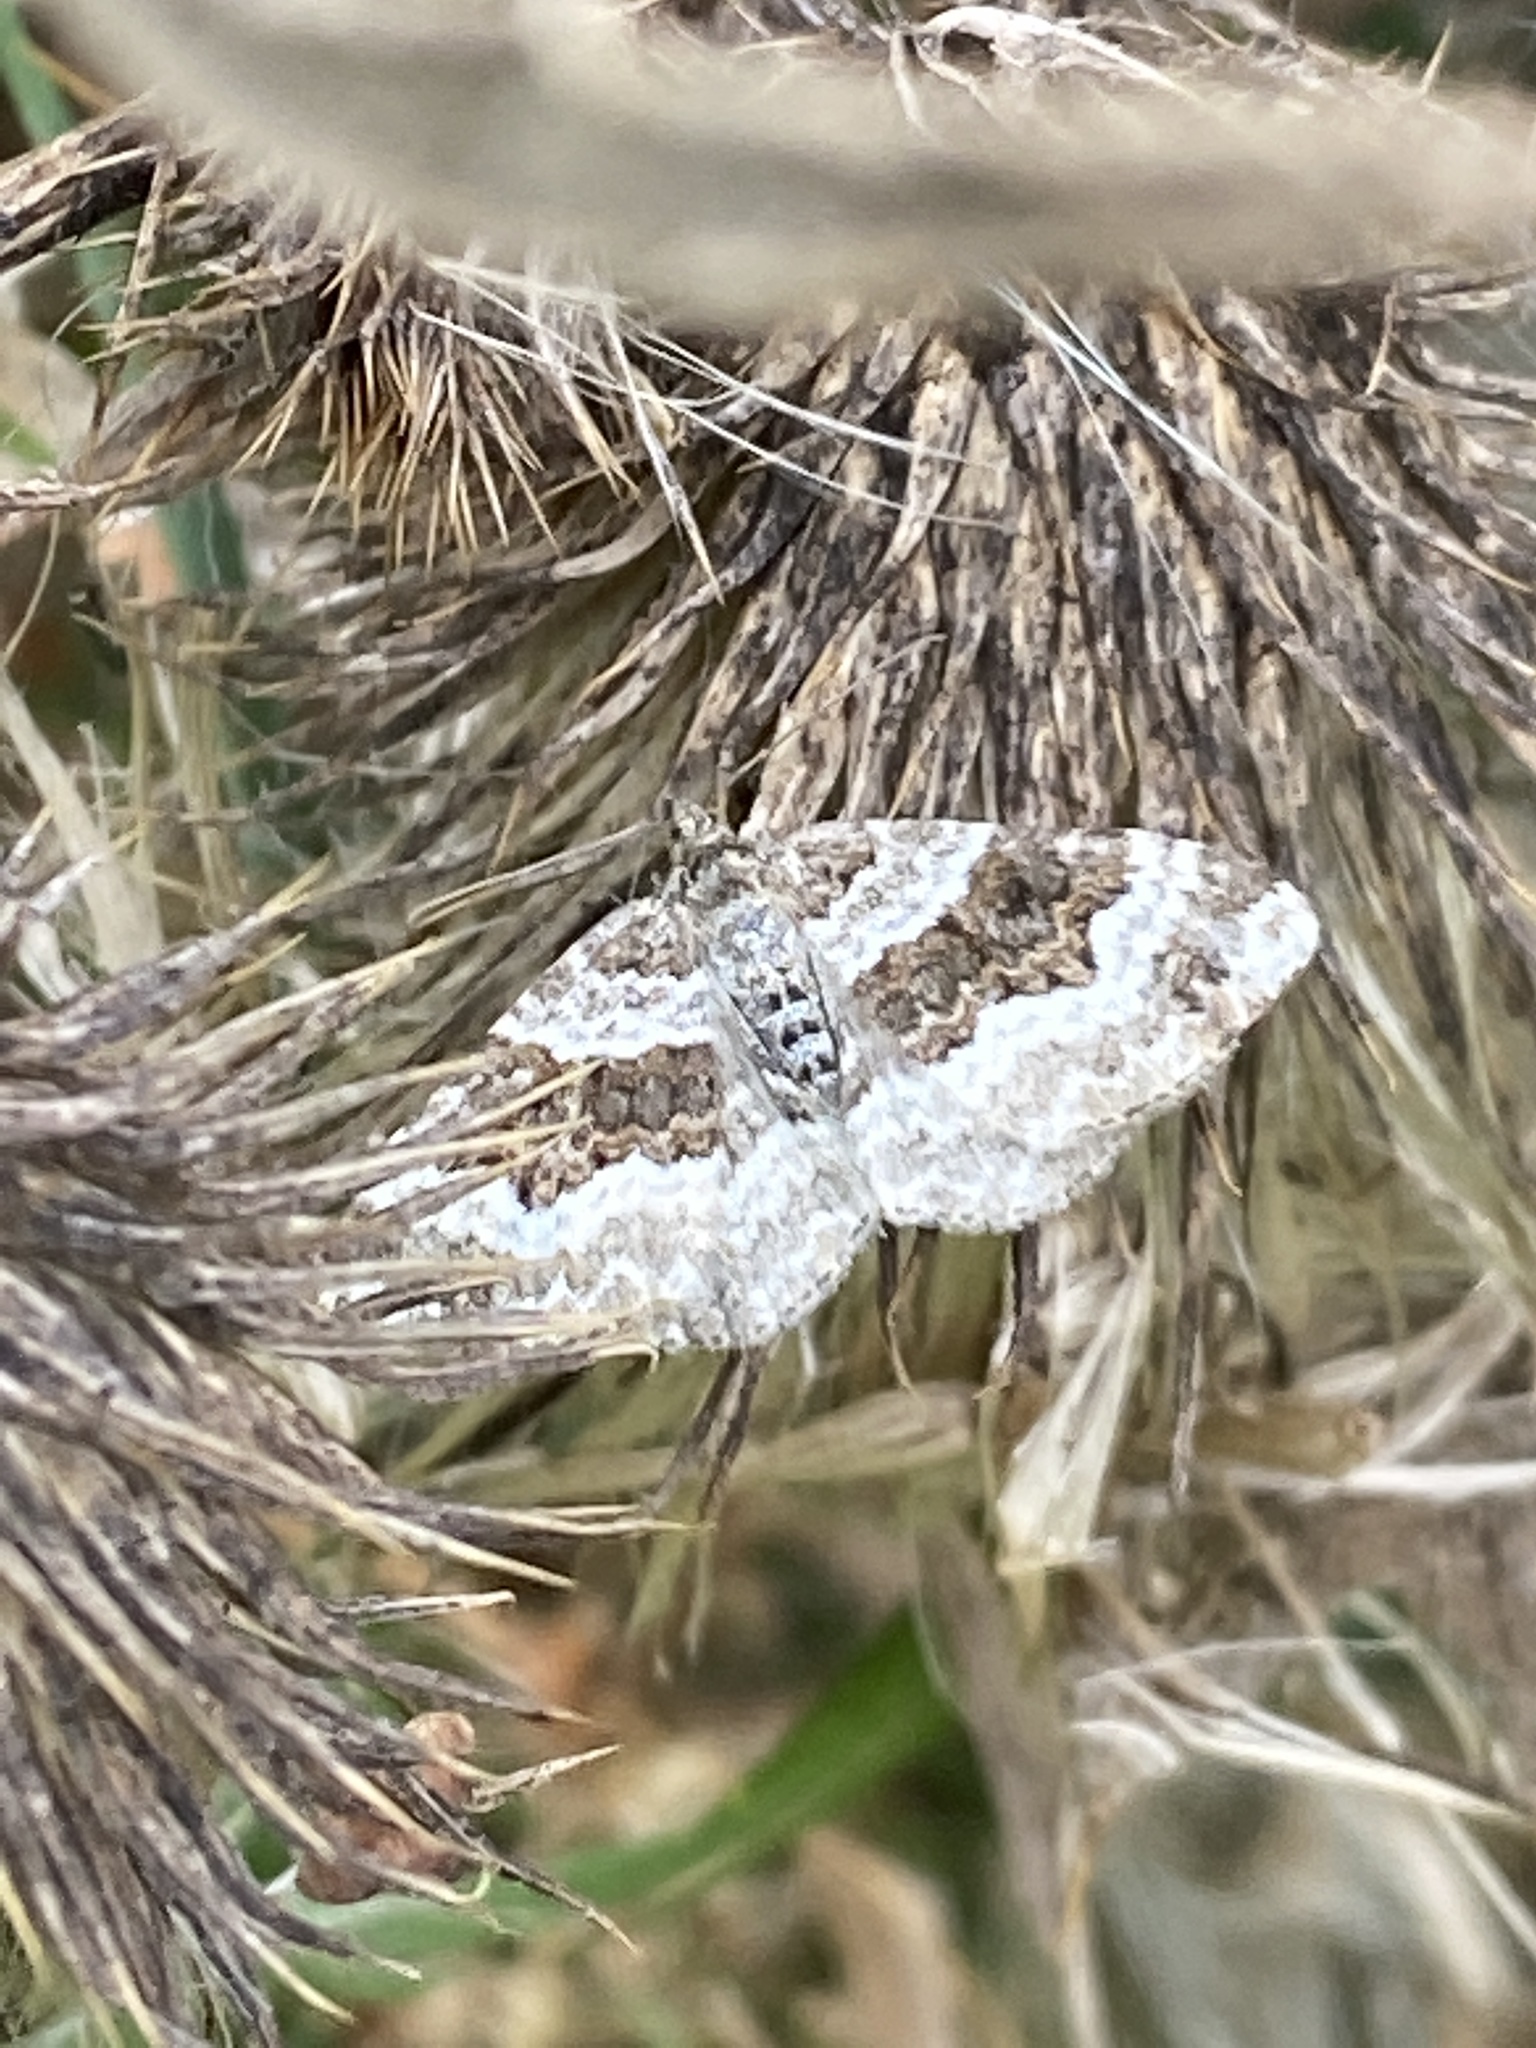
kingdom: Animalia
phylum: Arthropoda
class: Insecta
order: Lepidoptera
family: Geometridae
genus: Epirrhoe
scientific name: Epirrhoe alternata
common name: Common carpet
